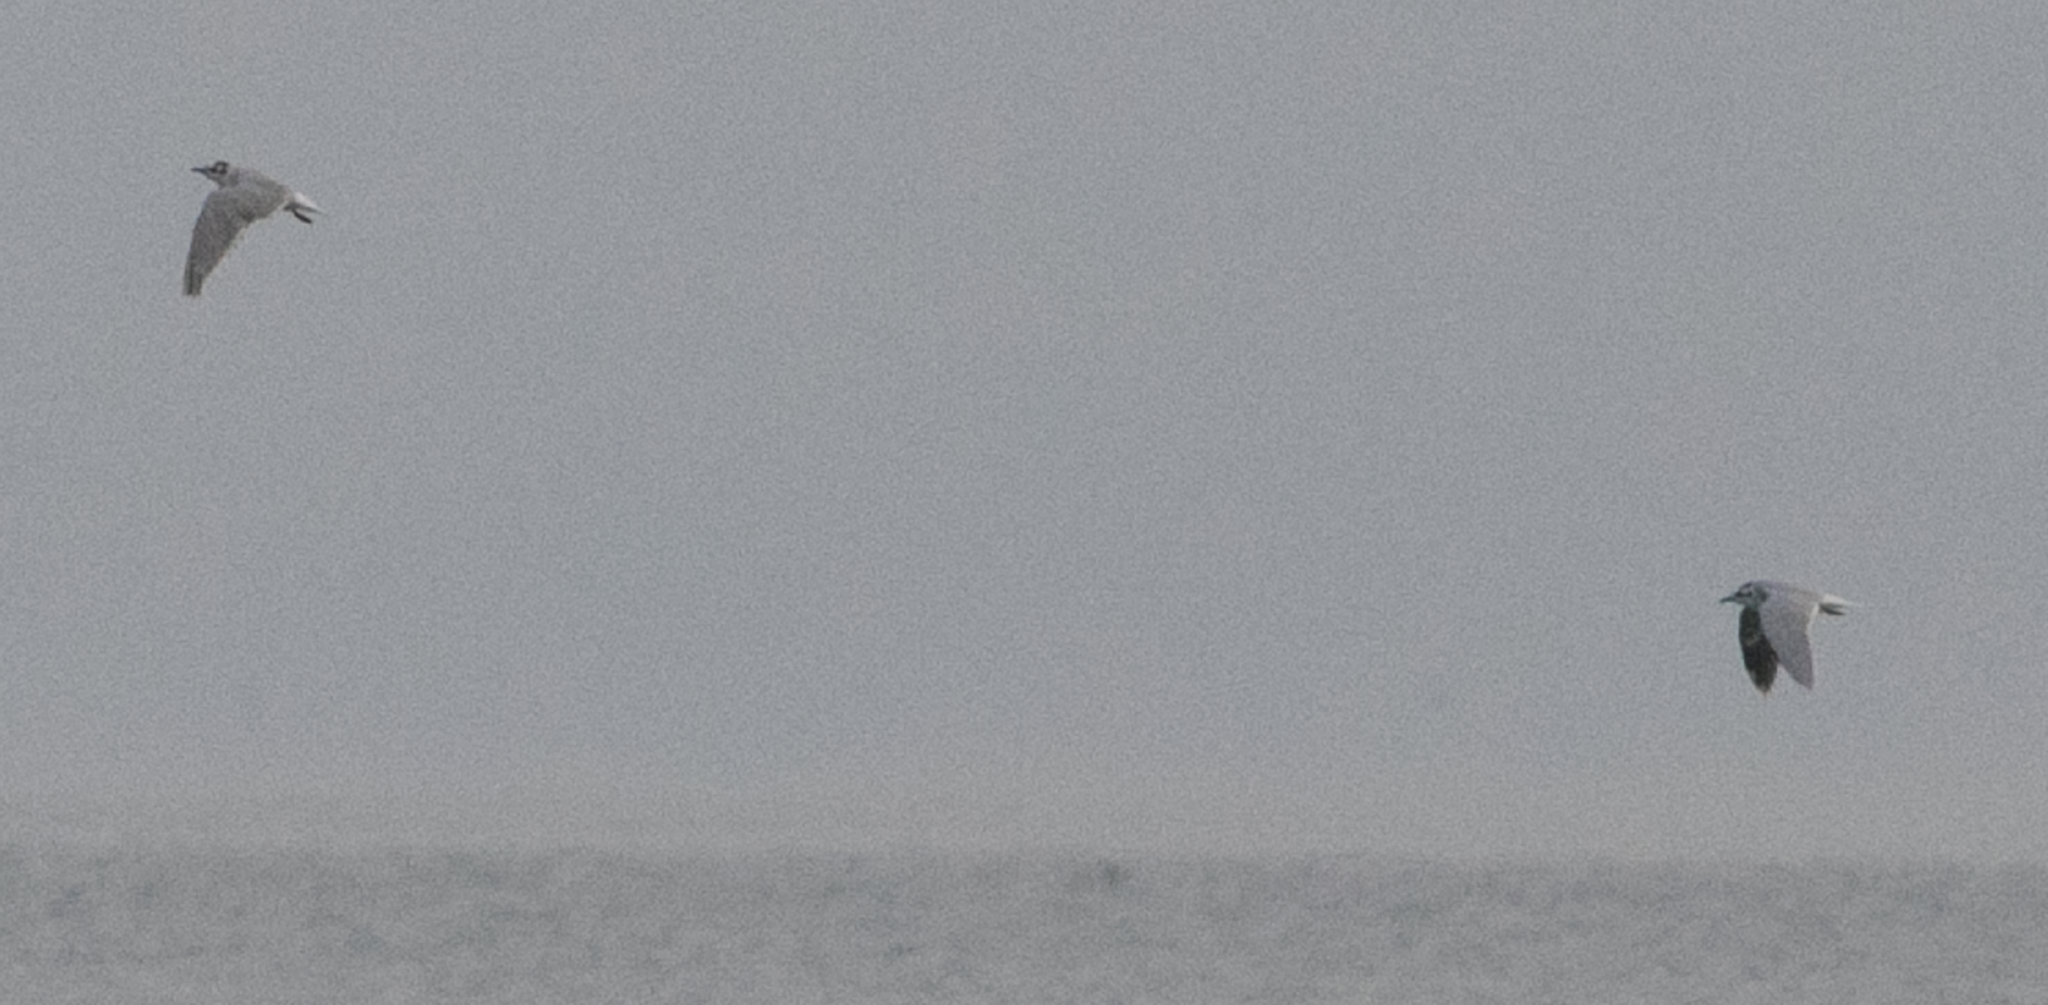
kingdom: Animalia
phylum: Chordata
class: Aves
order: Charadriiformes
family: Laridae
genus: Hydrocoloeus
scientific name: Hydrocoloeus minutus
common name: Little gull
